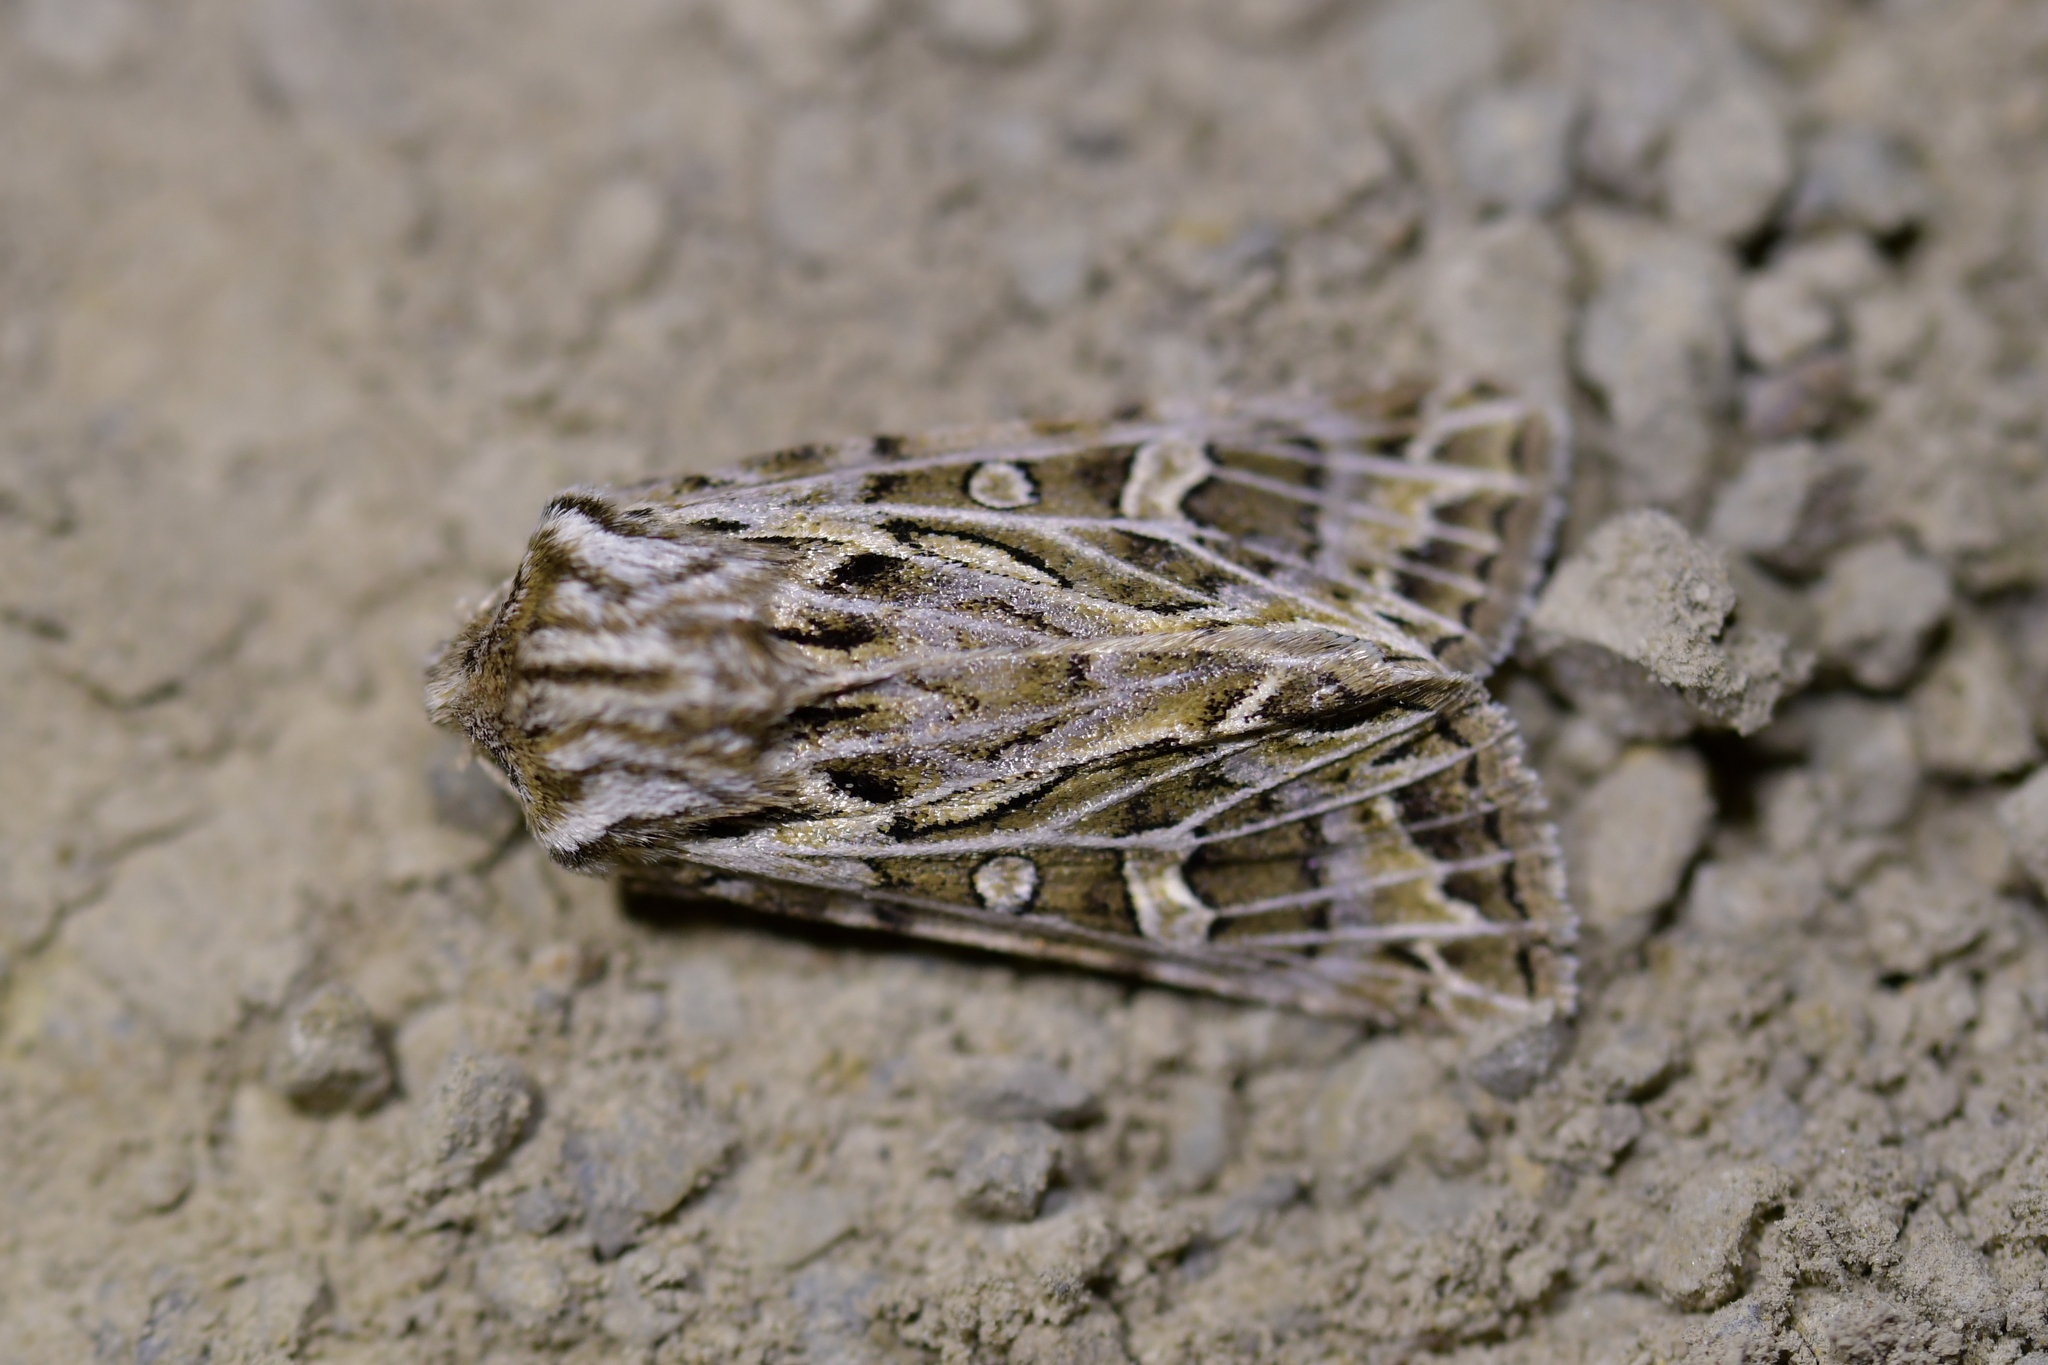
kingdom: Animalia
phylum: Arthropoda
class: Insecta
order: Lepidoptera
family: Noctuidae
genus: Ichneutica
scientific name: Ichneutica
